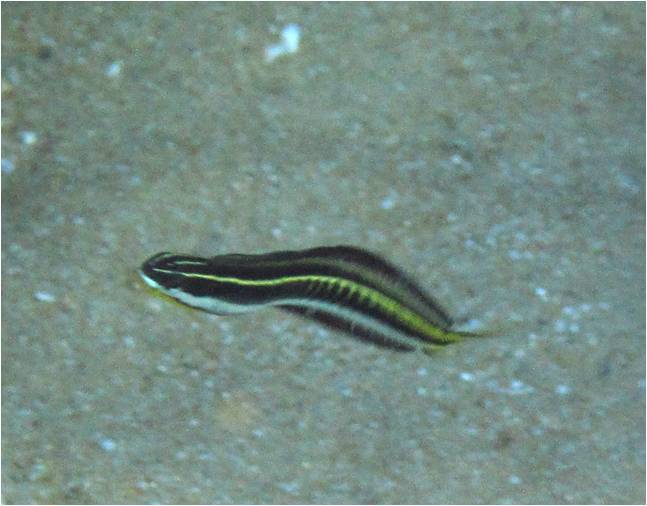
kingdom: Animalia
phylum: Chordata
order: Perciformes
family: Blenniidae
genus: Plagiotremus
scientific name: Plagiotremus tapeinosoma
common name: Hit and run blenny
